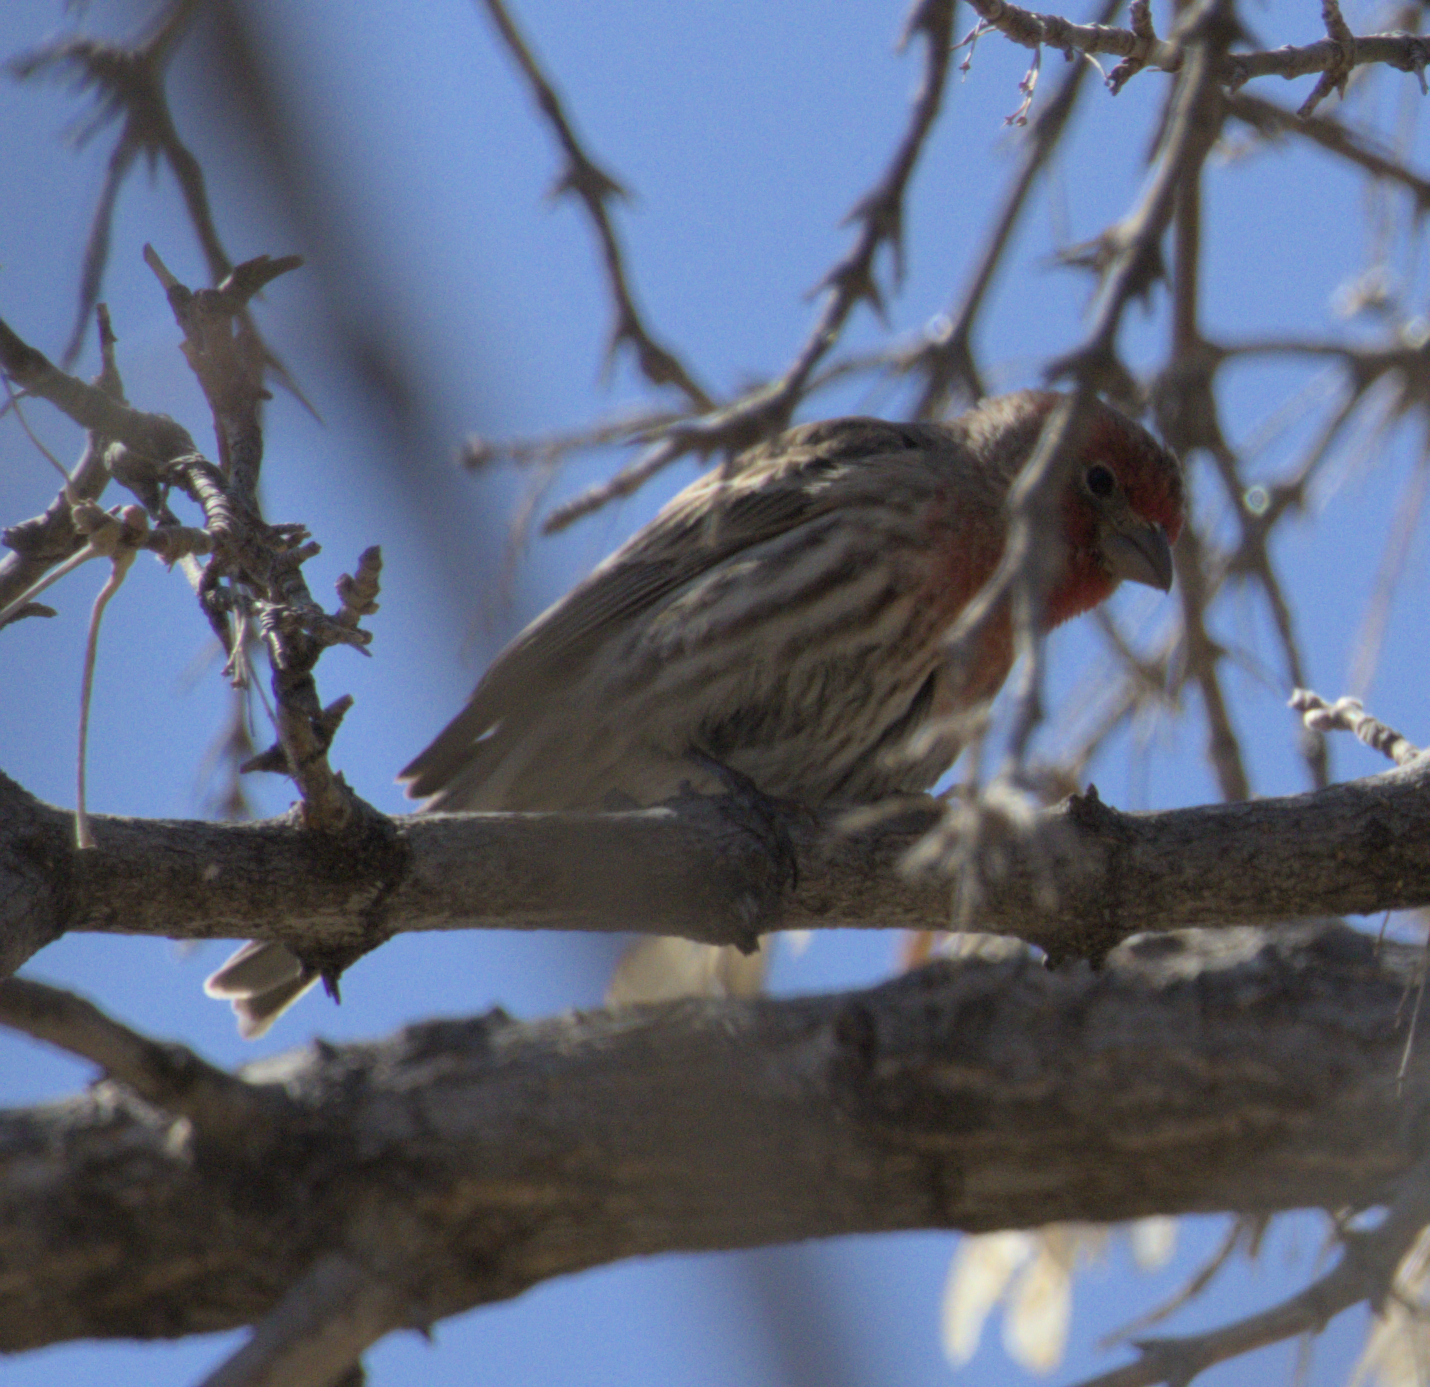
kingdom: Animalia
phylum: Chordata
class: Aves
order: Passeriformes
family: Fringillidae
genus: Haemorhous
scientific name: Haemorhous mexicanus
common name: House finch
